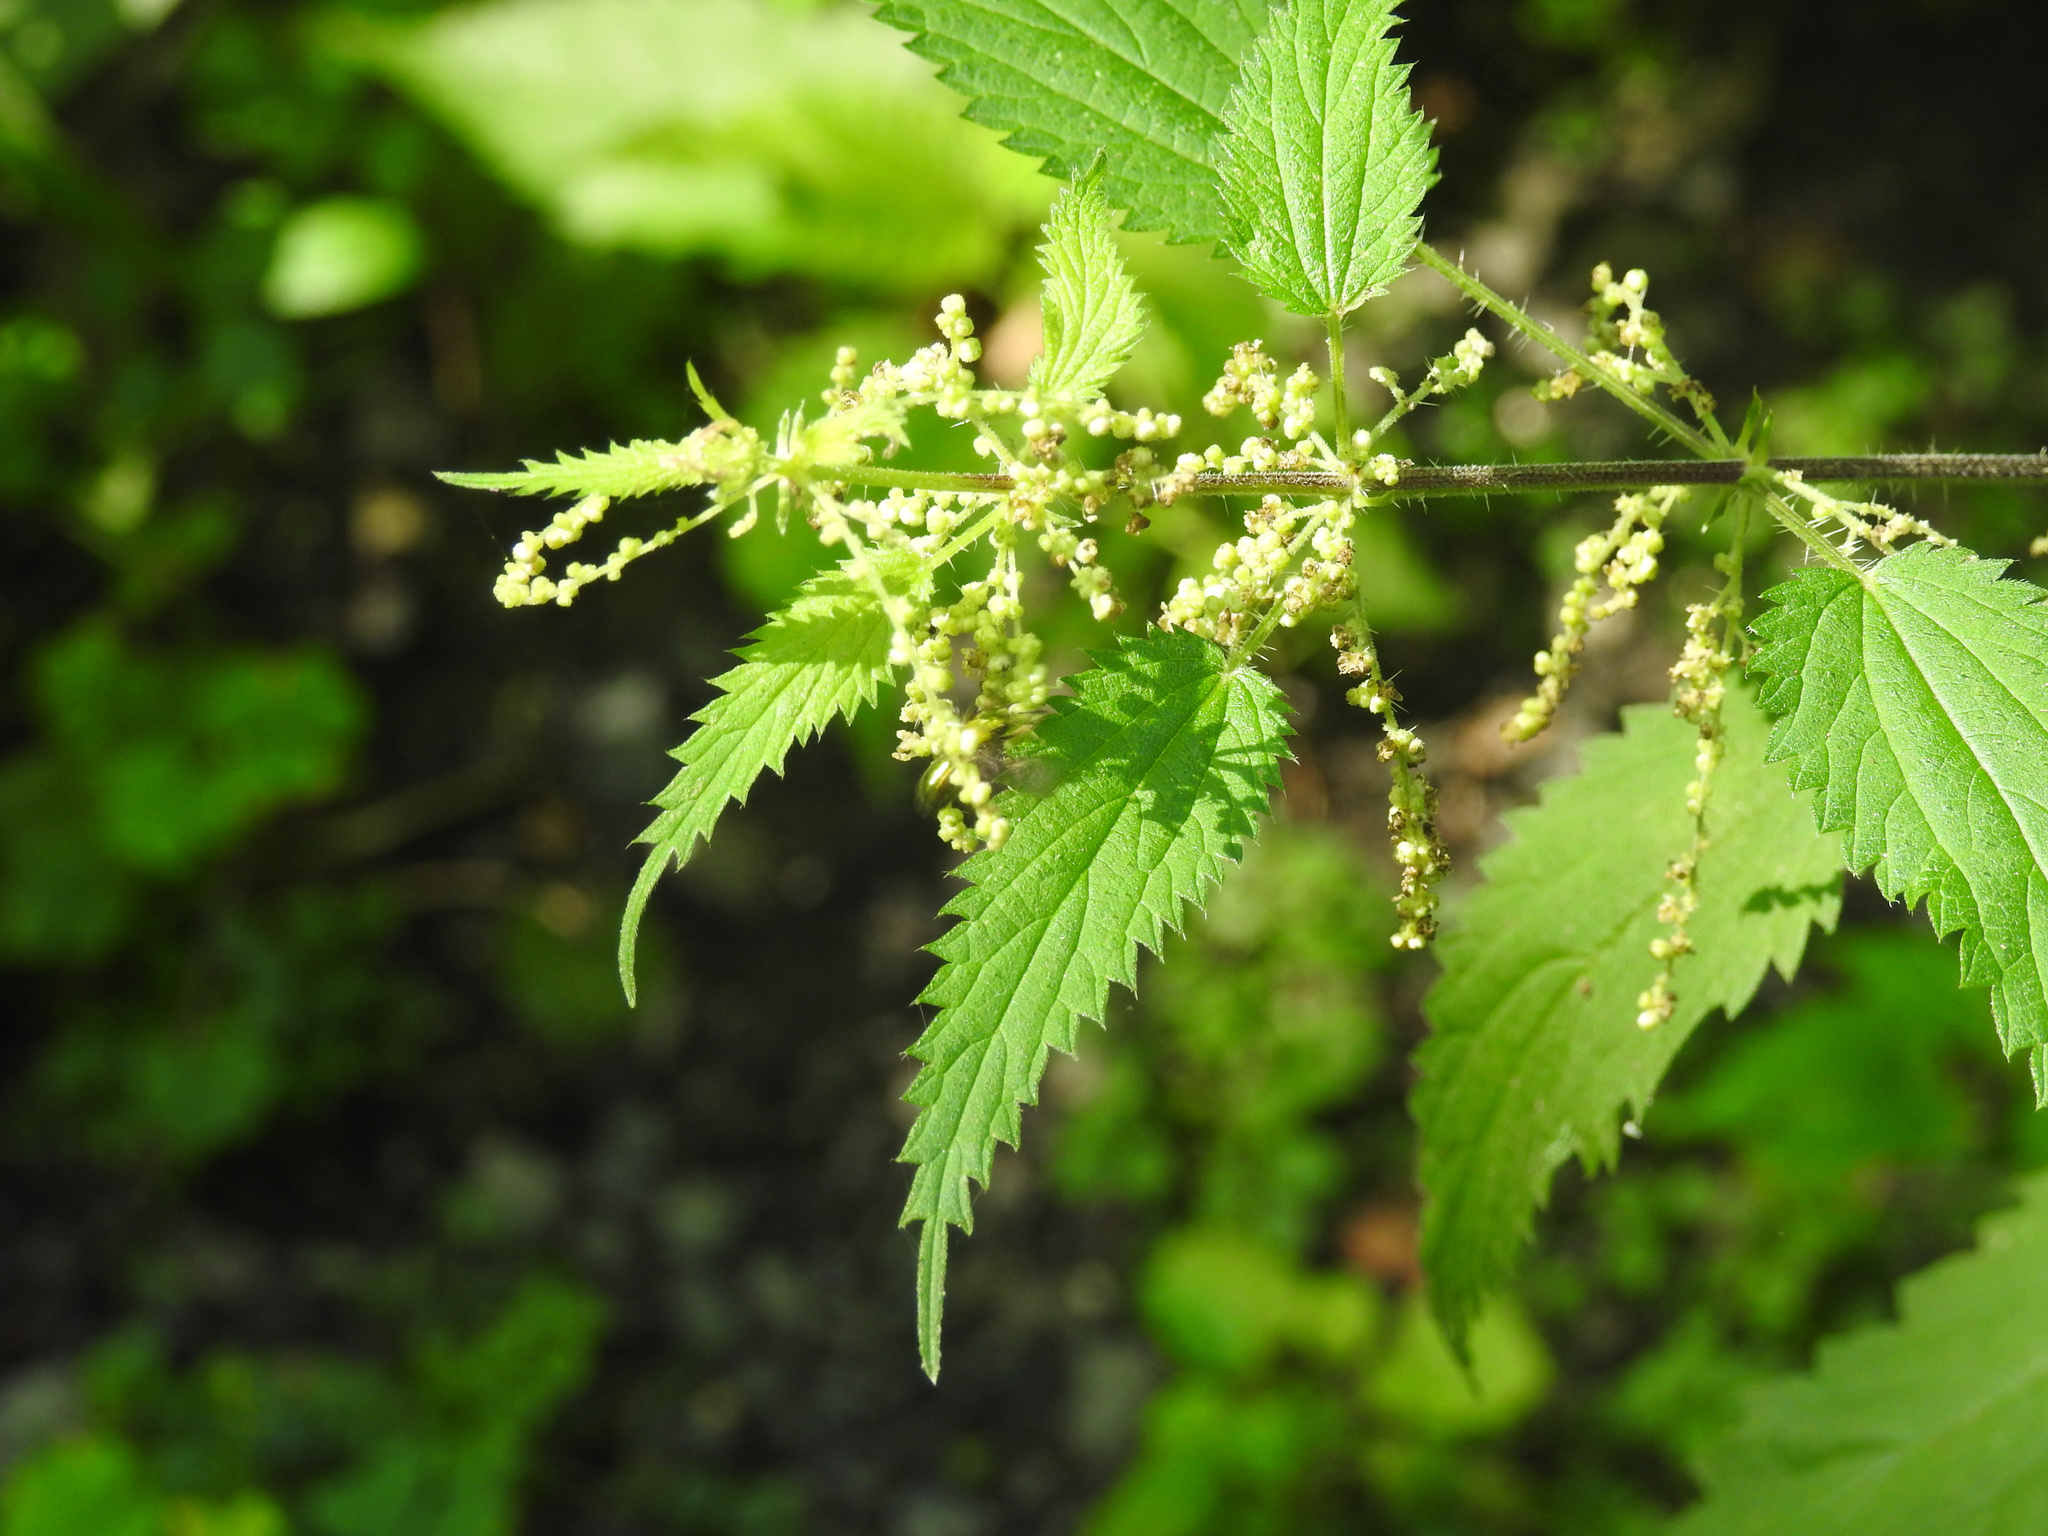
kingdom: Plantae
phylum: Tracheophyta
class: Magnoliopsida
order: Rosales
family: Urticaceae
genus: Urtica
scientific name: Urtica dioica
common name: Common nettle
